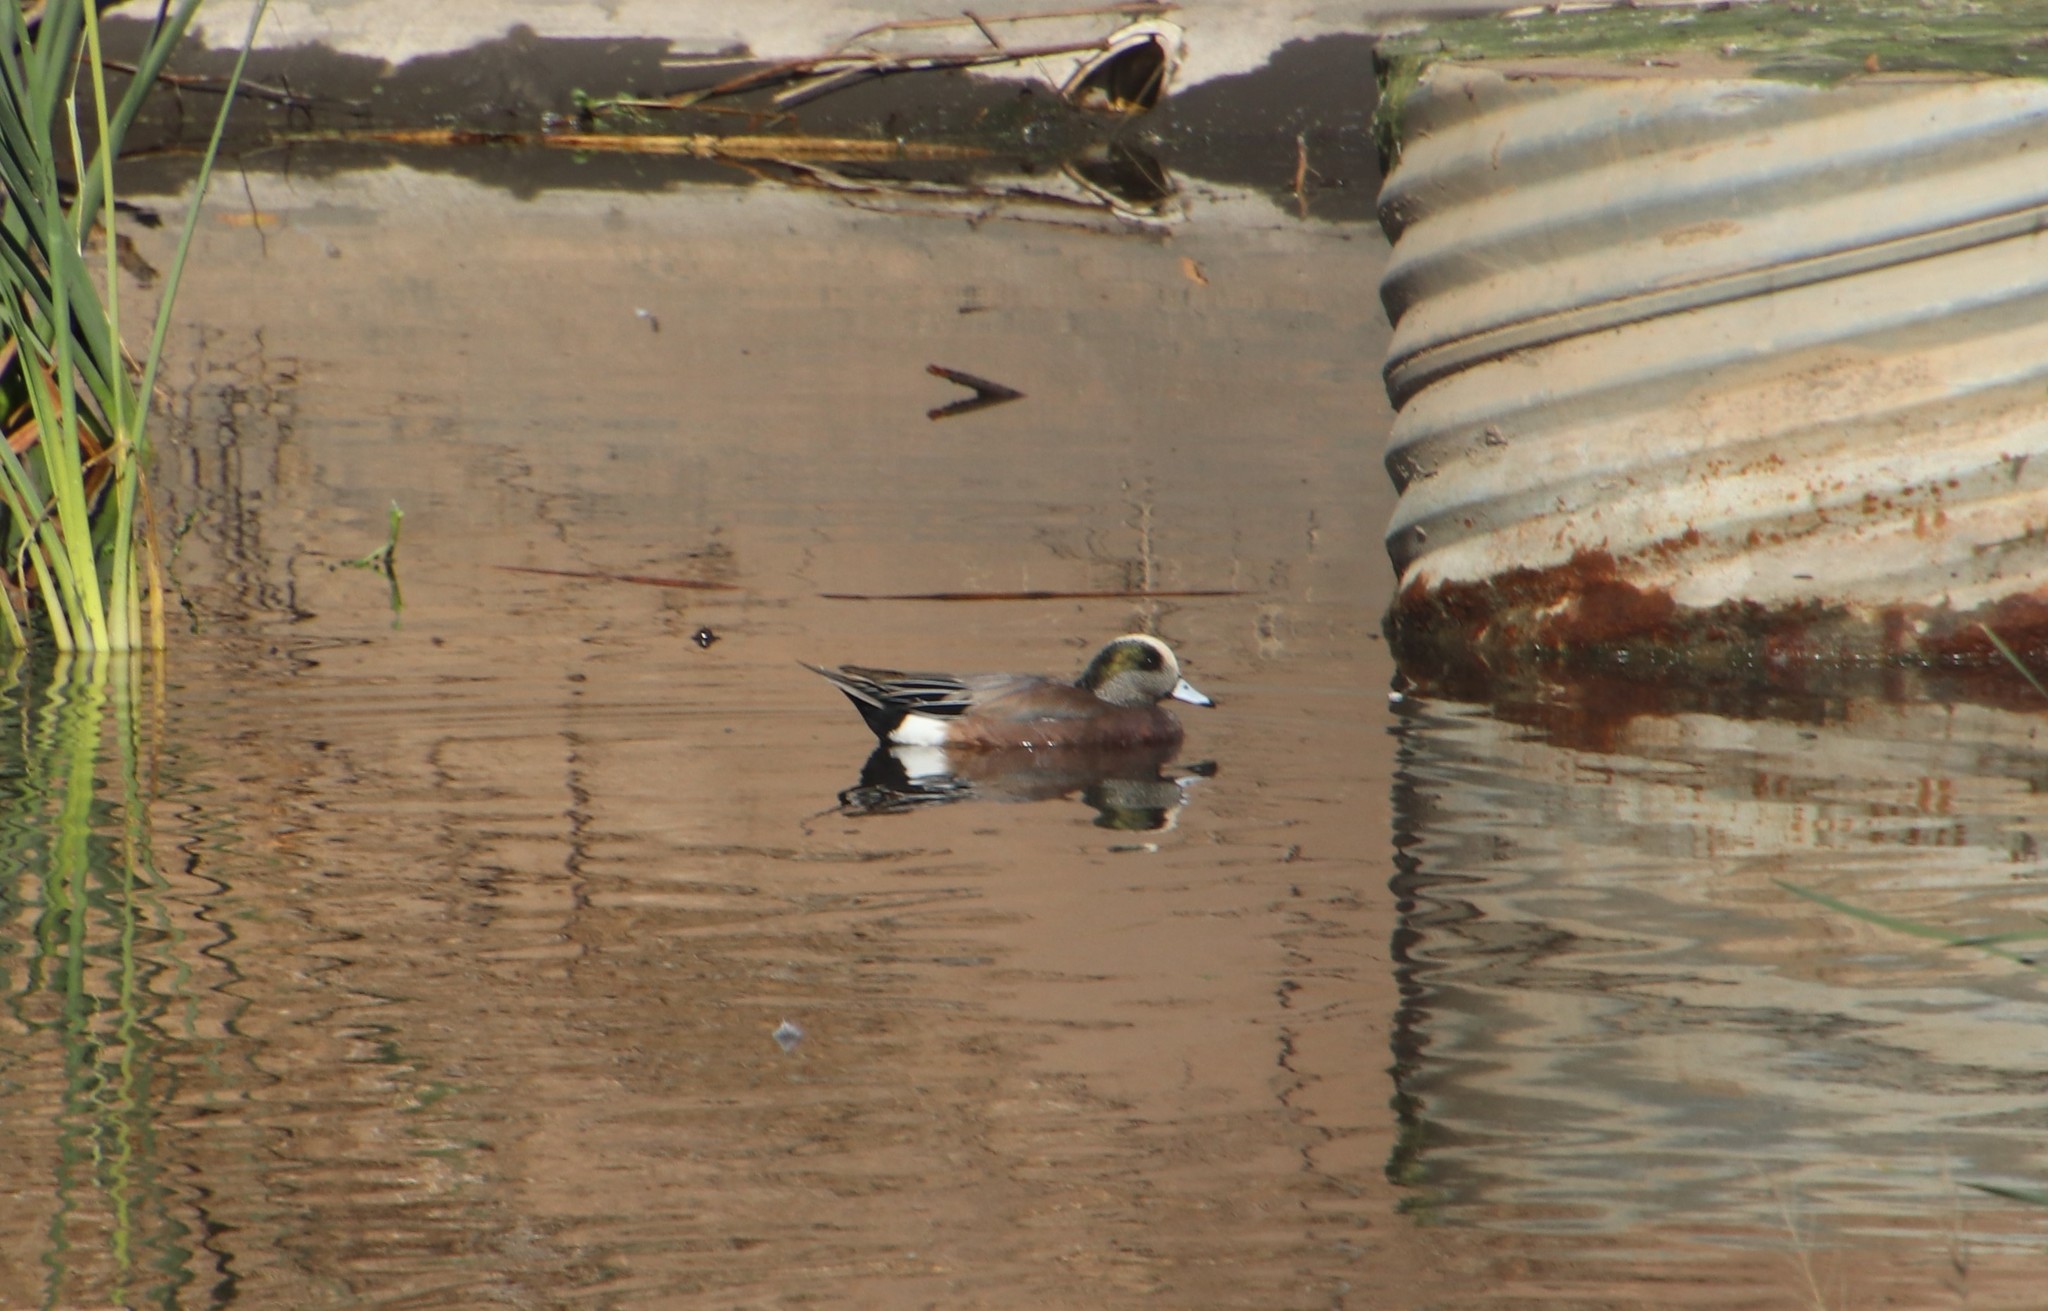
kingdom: Animalia
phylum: Chordata
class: Aves
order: Anseriformes
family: Anatidae
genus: Mareca
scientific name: Mareca americana
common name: American wigeon
